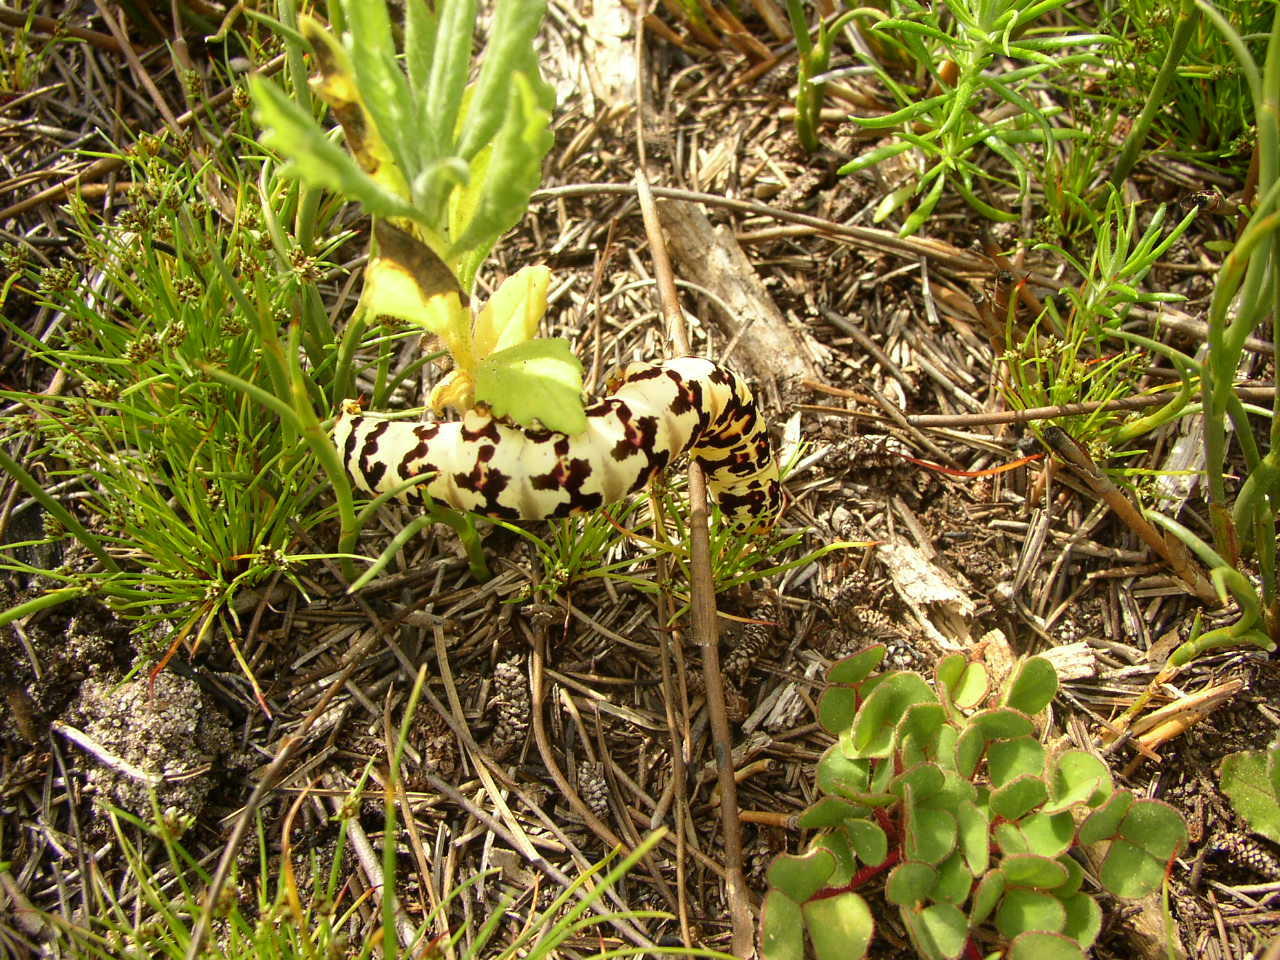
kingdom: Animalia
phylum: Arthropoda
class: Insecta
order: Lepidoptera
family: Noctuidae
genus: Diaphone
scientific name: Diaphone eumela
